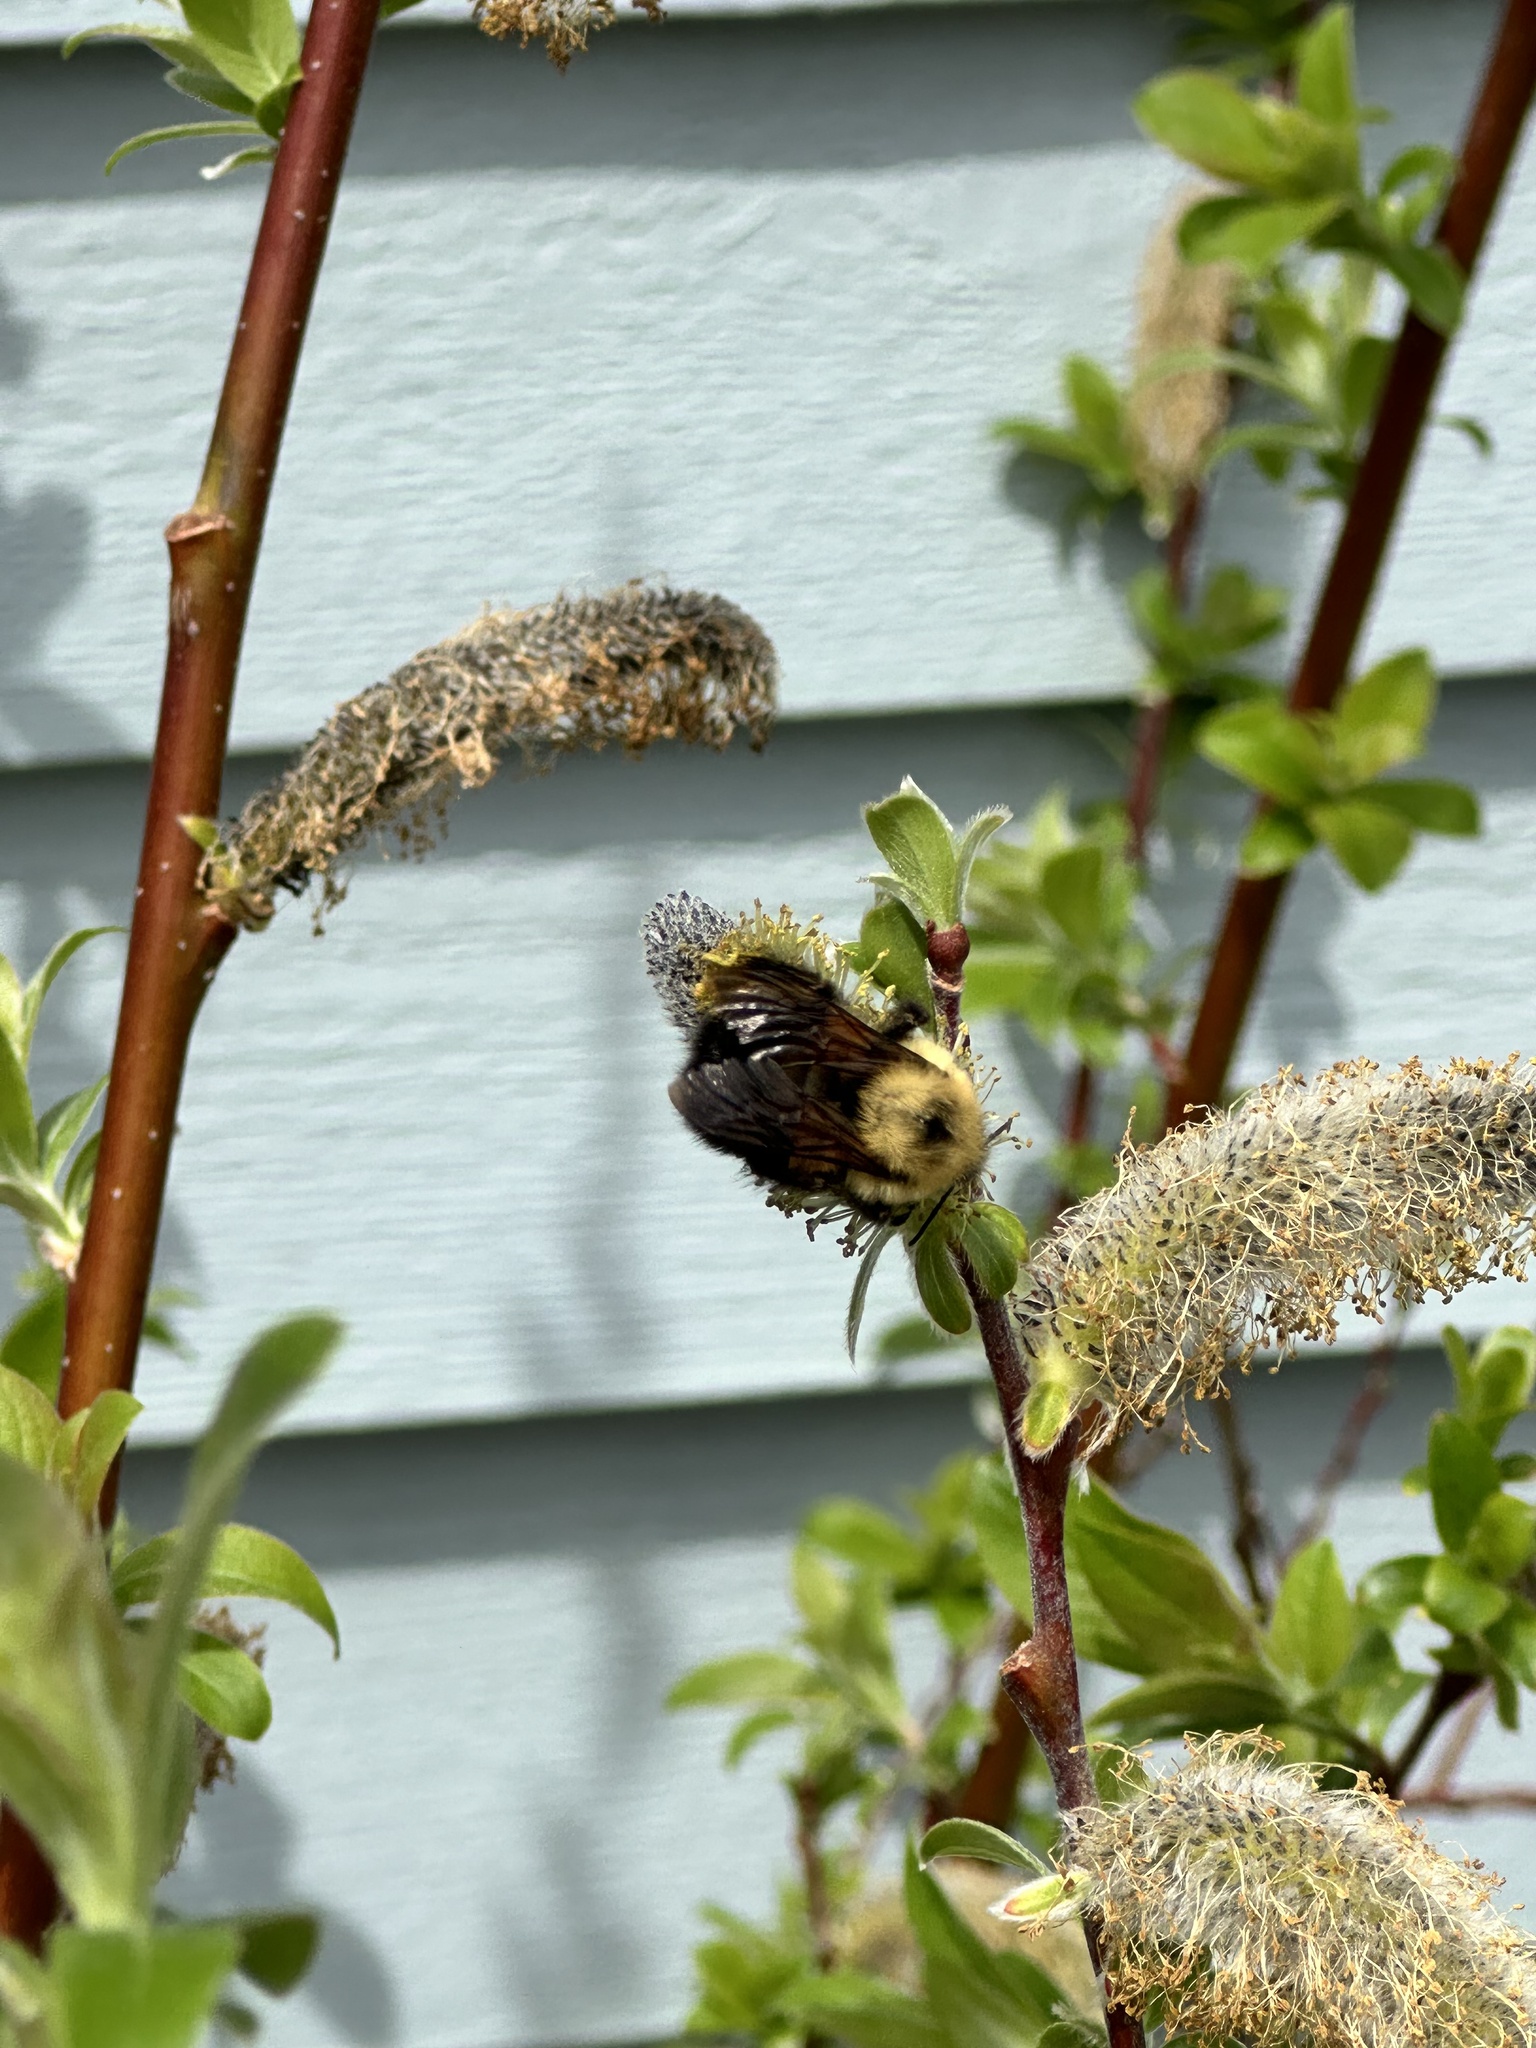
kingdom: Animalia
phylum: Arthropoda
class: Insecta
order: Hymenoptera
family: Apidae
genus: Bombus
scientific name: Bombus bimaculatus
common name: Two-spotted bumble bee
